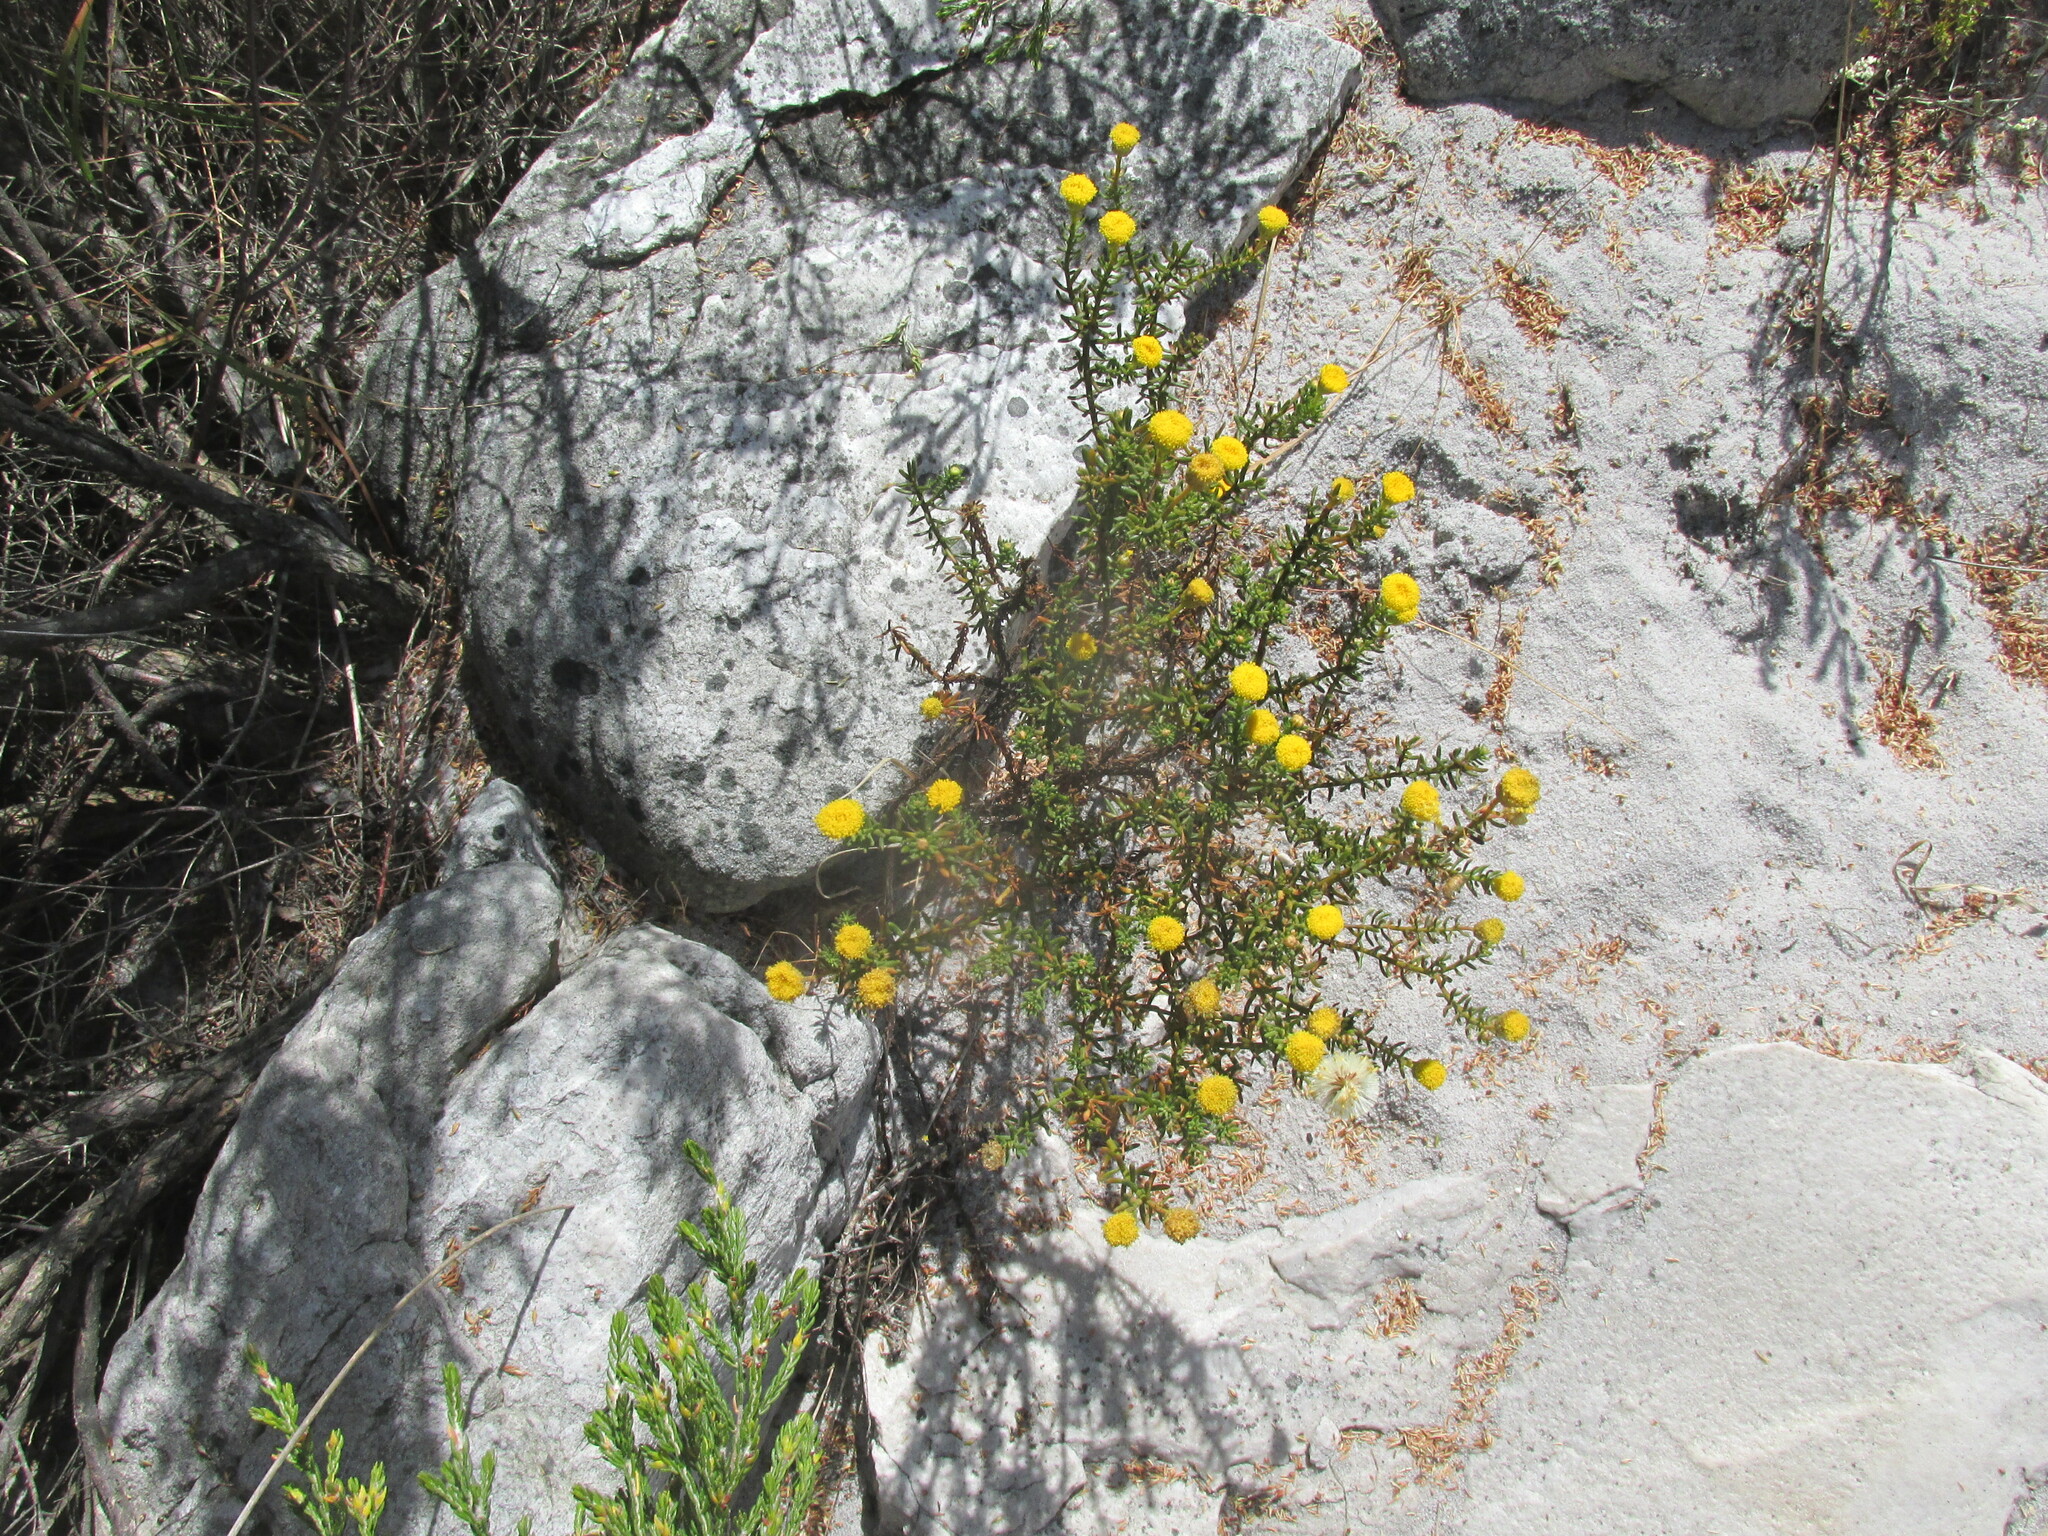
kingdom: Plantae
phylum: Tracheophyta
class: Magnoliopsida
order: Asterales
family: Asteraceae
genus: Chrysocoma
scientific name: Chrysocoma cernua
